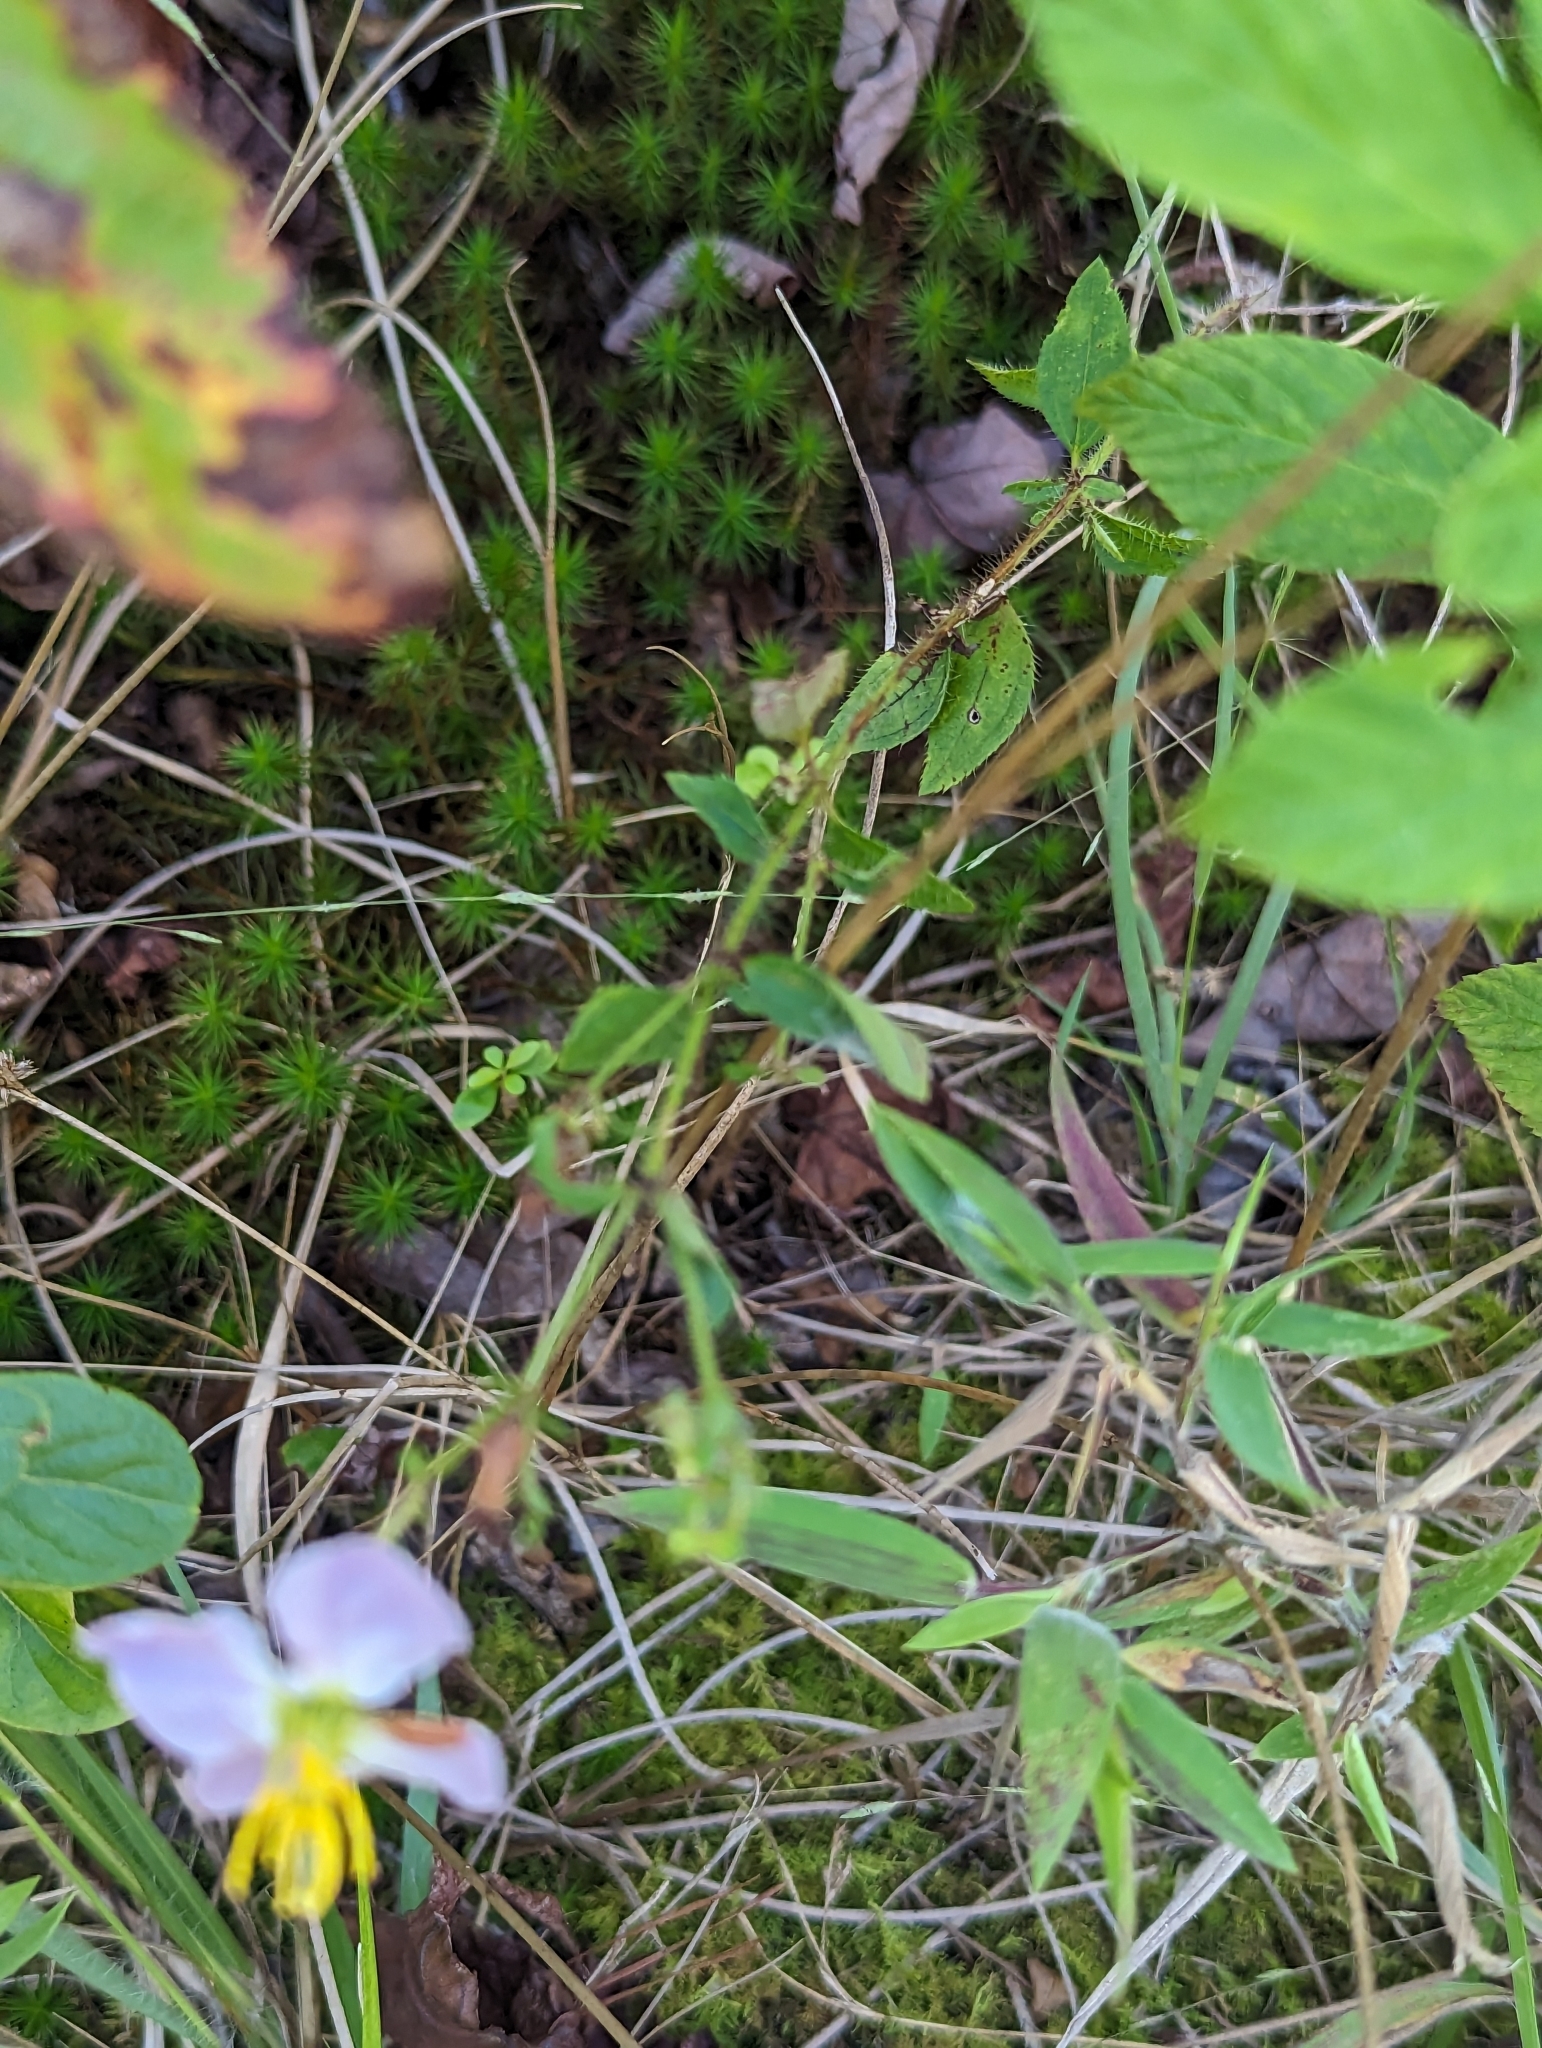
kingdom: Plantae
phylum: Tracheophyta
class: Magnoliopsida
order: Myrtales
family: Melastomataceae
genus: Rhexia
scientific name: Rhexia mariana
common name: Dull meadow-pitcher
